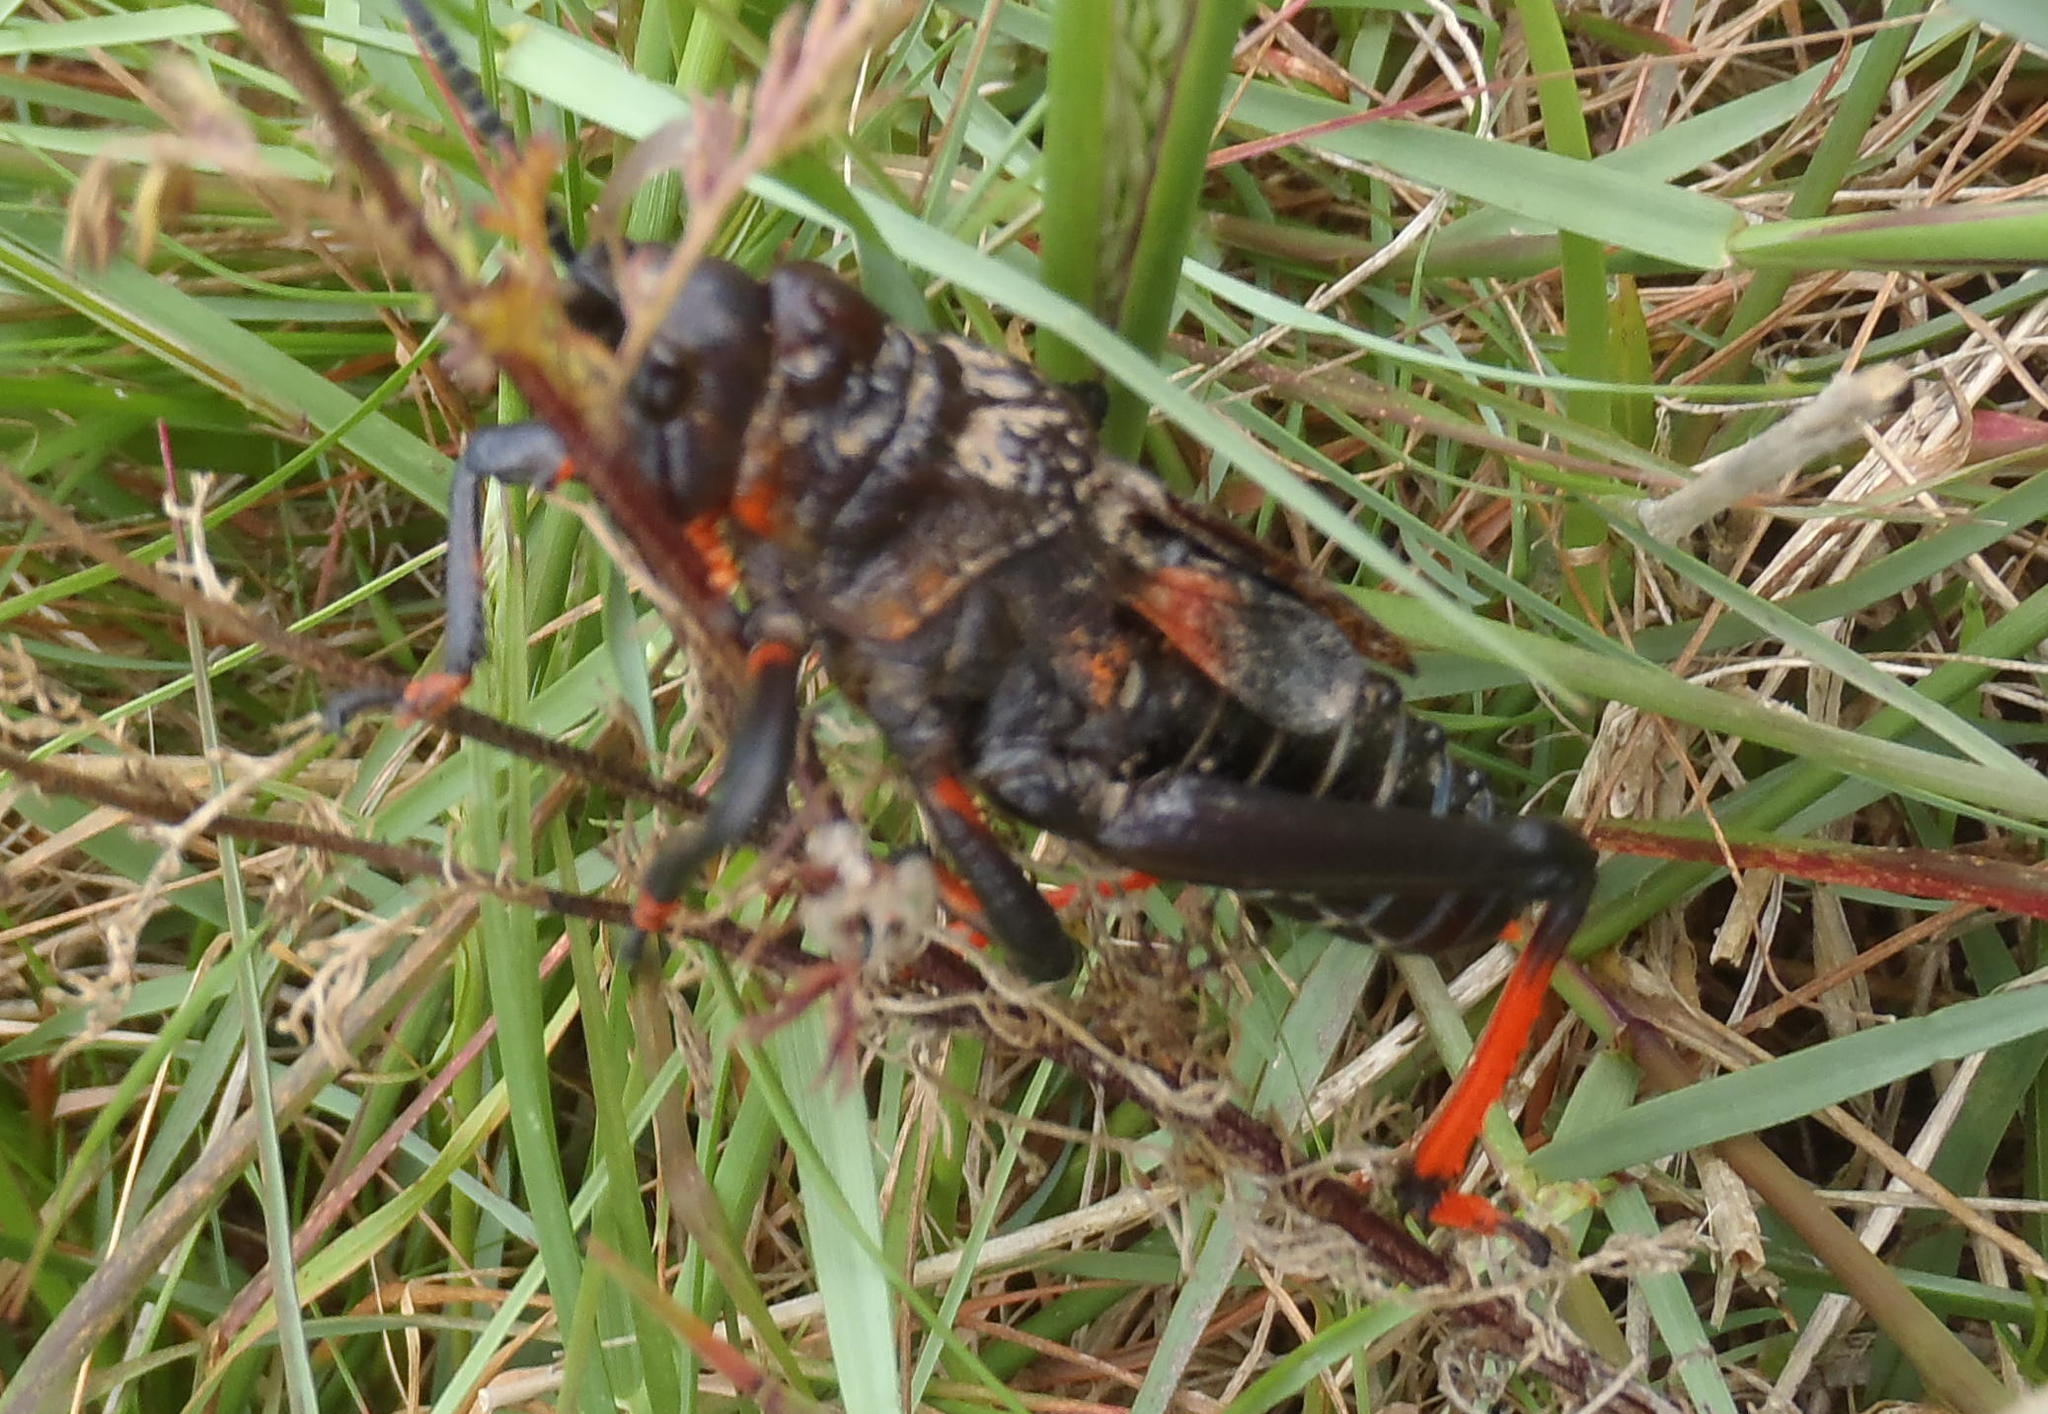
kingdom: Animalia
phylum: Arthropoda
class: Insecta
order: Orthoptera
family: Pyrgomorphidae
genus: Dictyophorus
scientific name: Dictyophorus spumans
